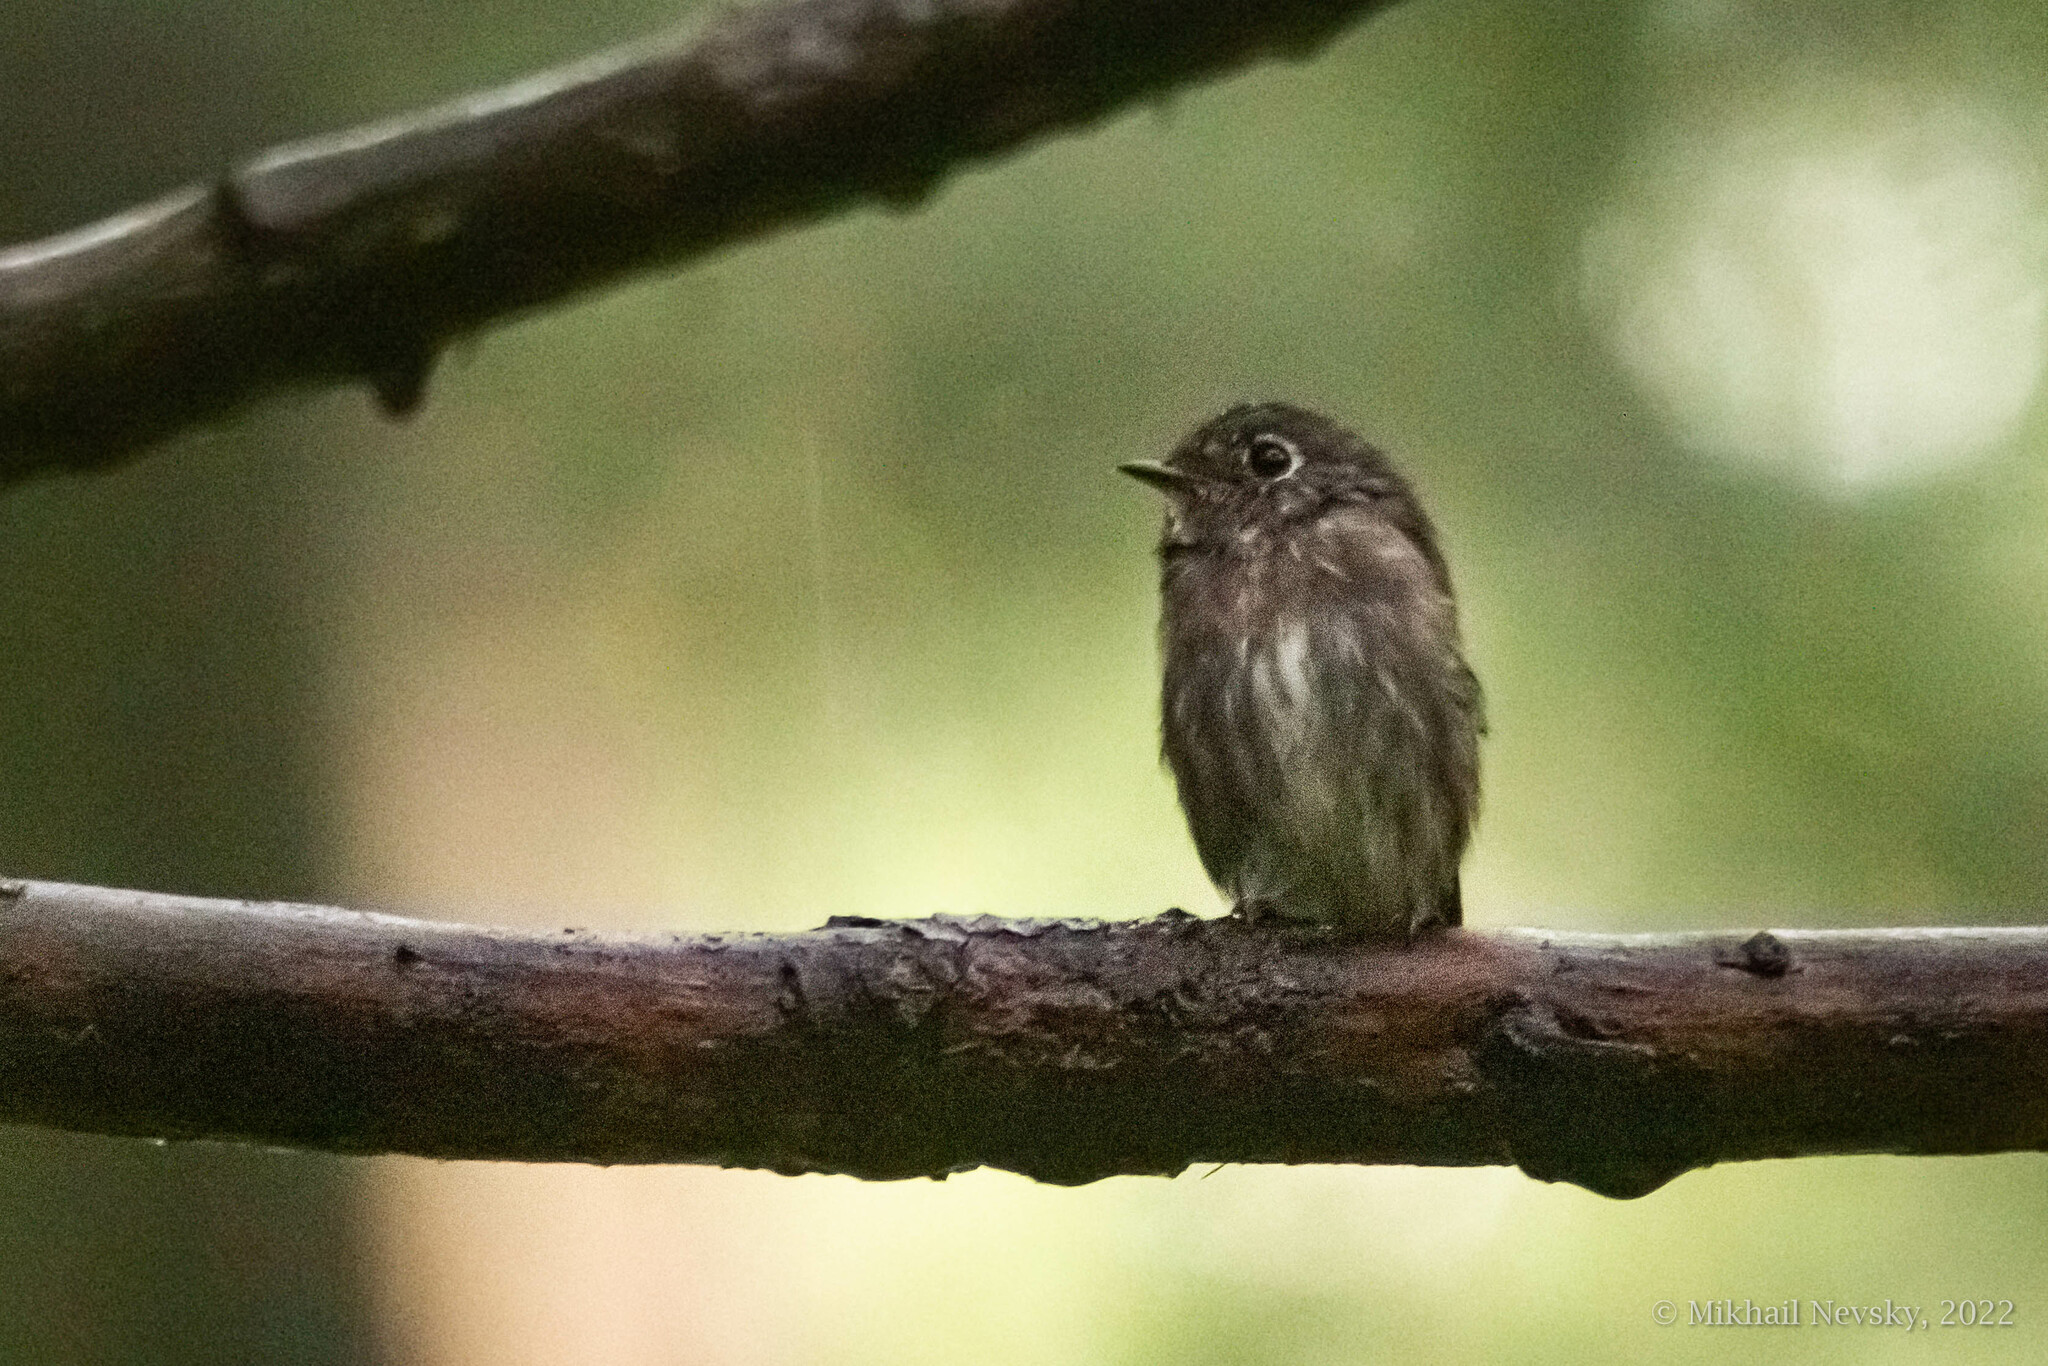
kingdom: Animalia
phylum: Chordata
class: Aves
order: Passeriformes
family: Muscicapidae
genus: Muscicapa
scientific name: Muscicapa sibirica
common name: Dark-sided flycatcher
